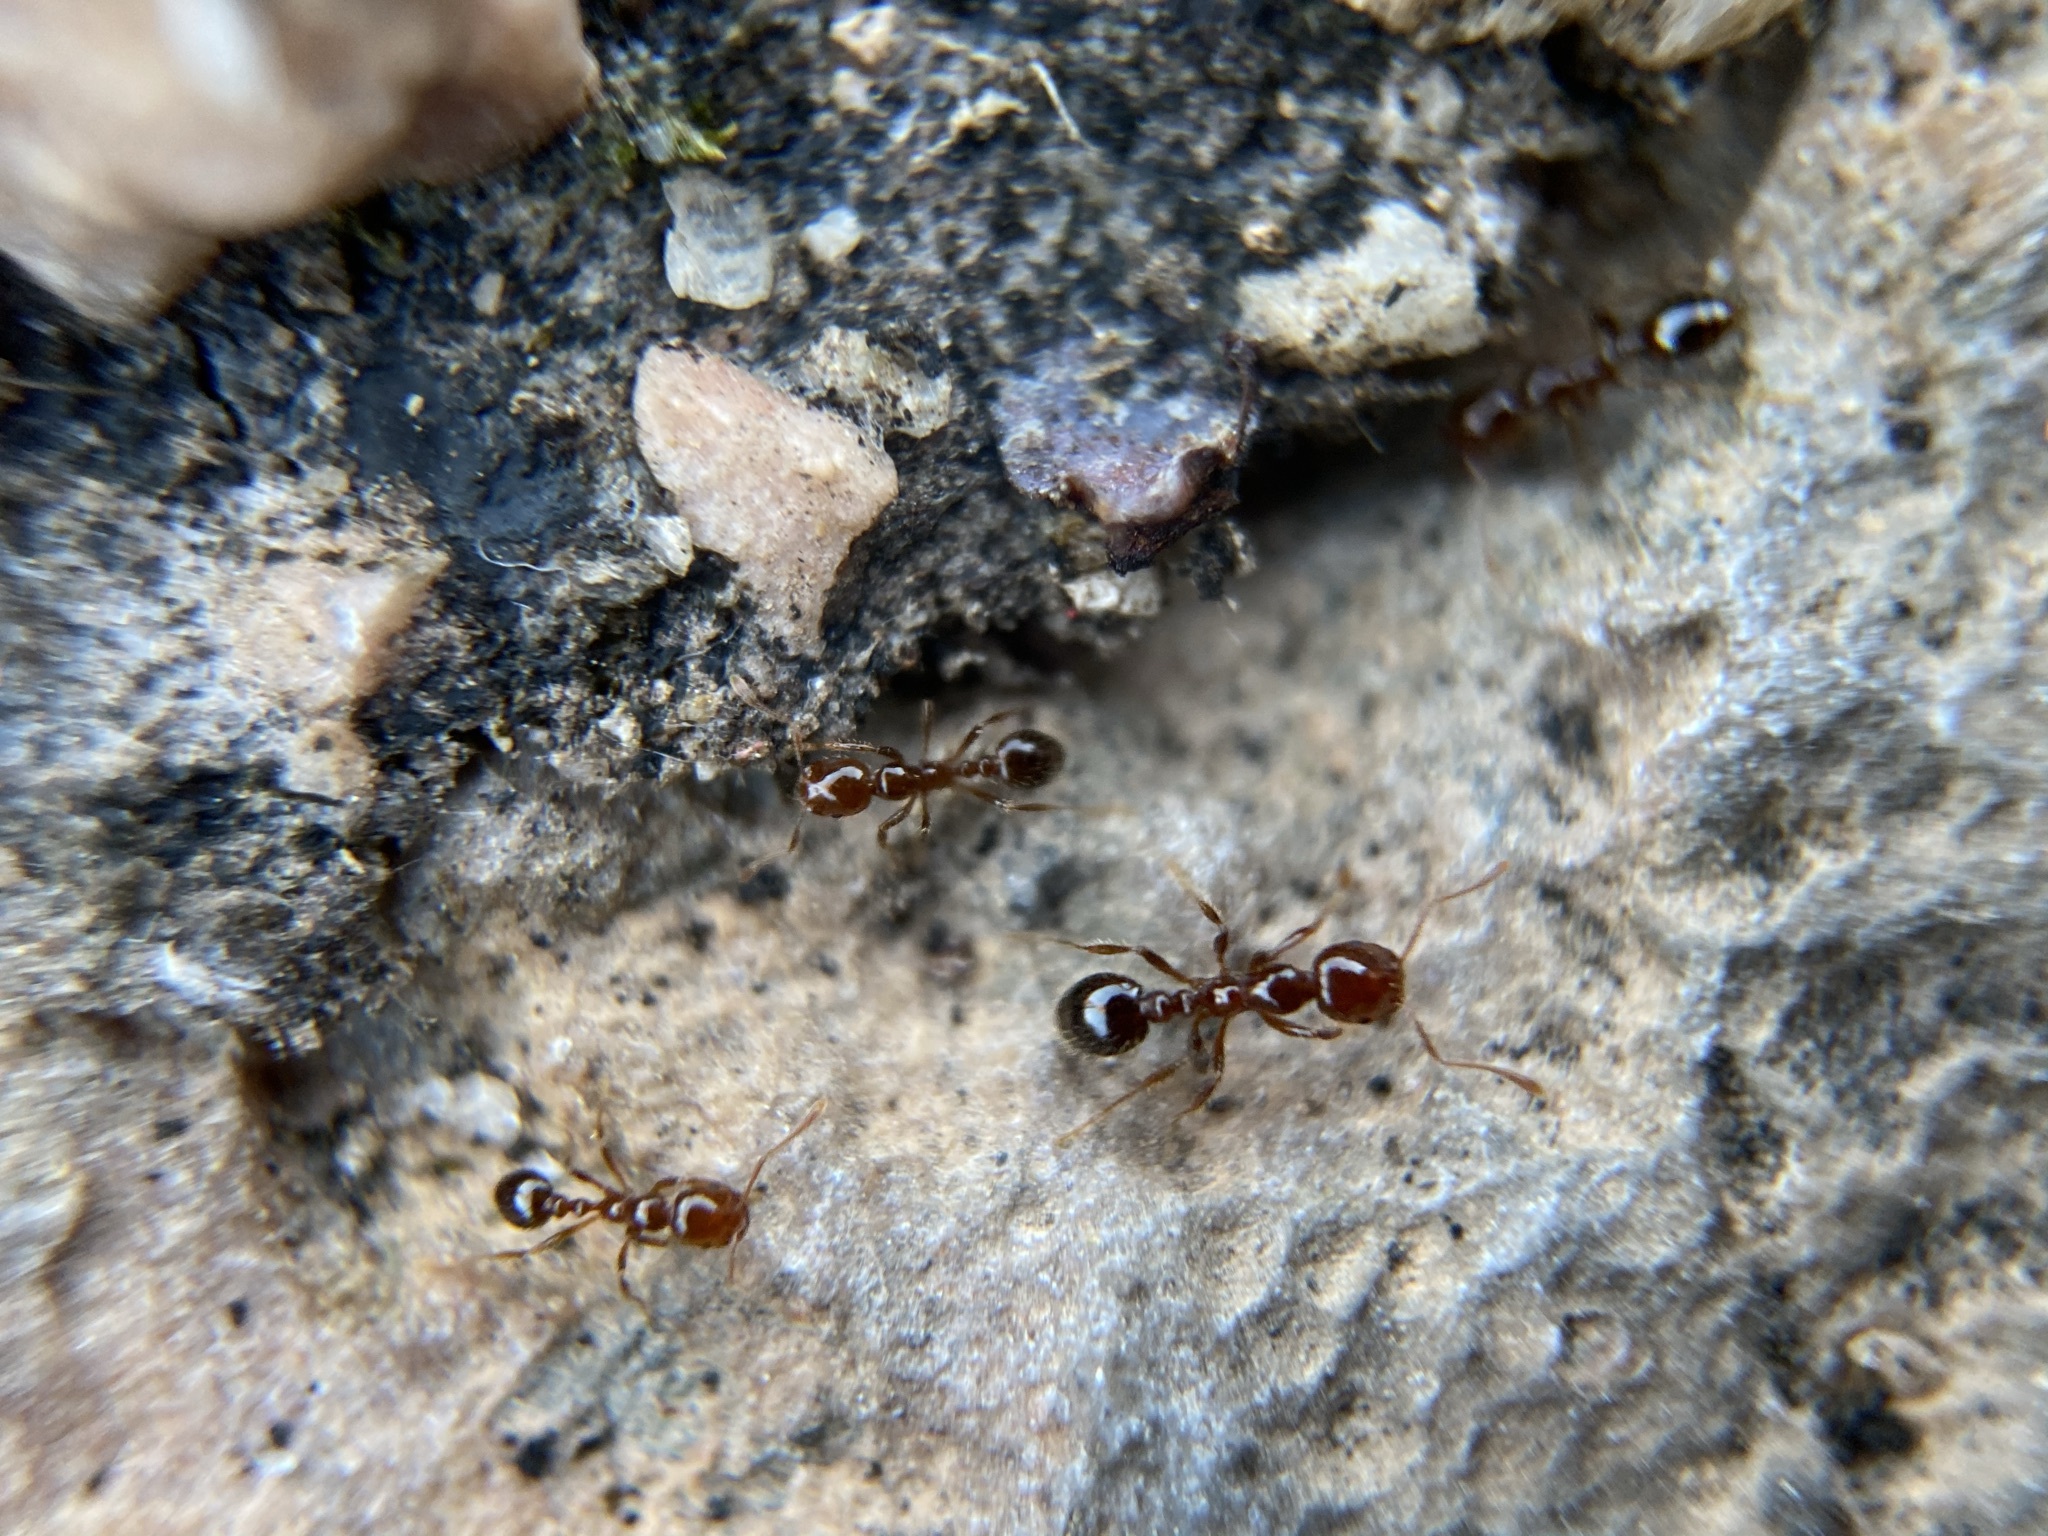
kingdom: Animalia
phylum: Arthropoda
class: Insecta
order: Hymenoptera
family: Formicidae
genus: Solenopsis
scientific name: Solenopsis invicta
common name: Red imported fire ant
